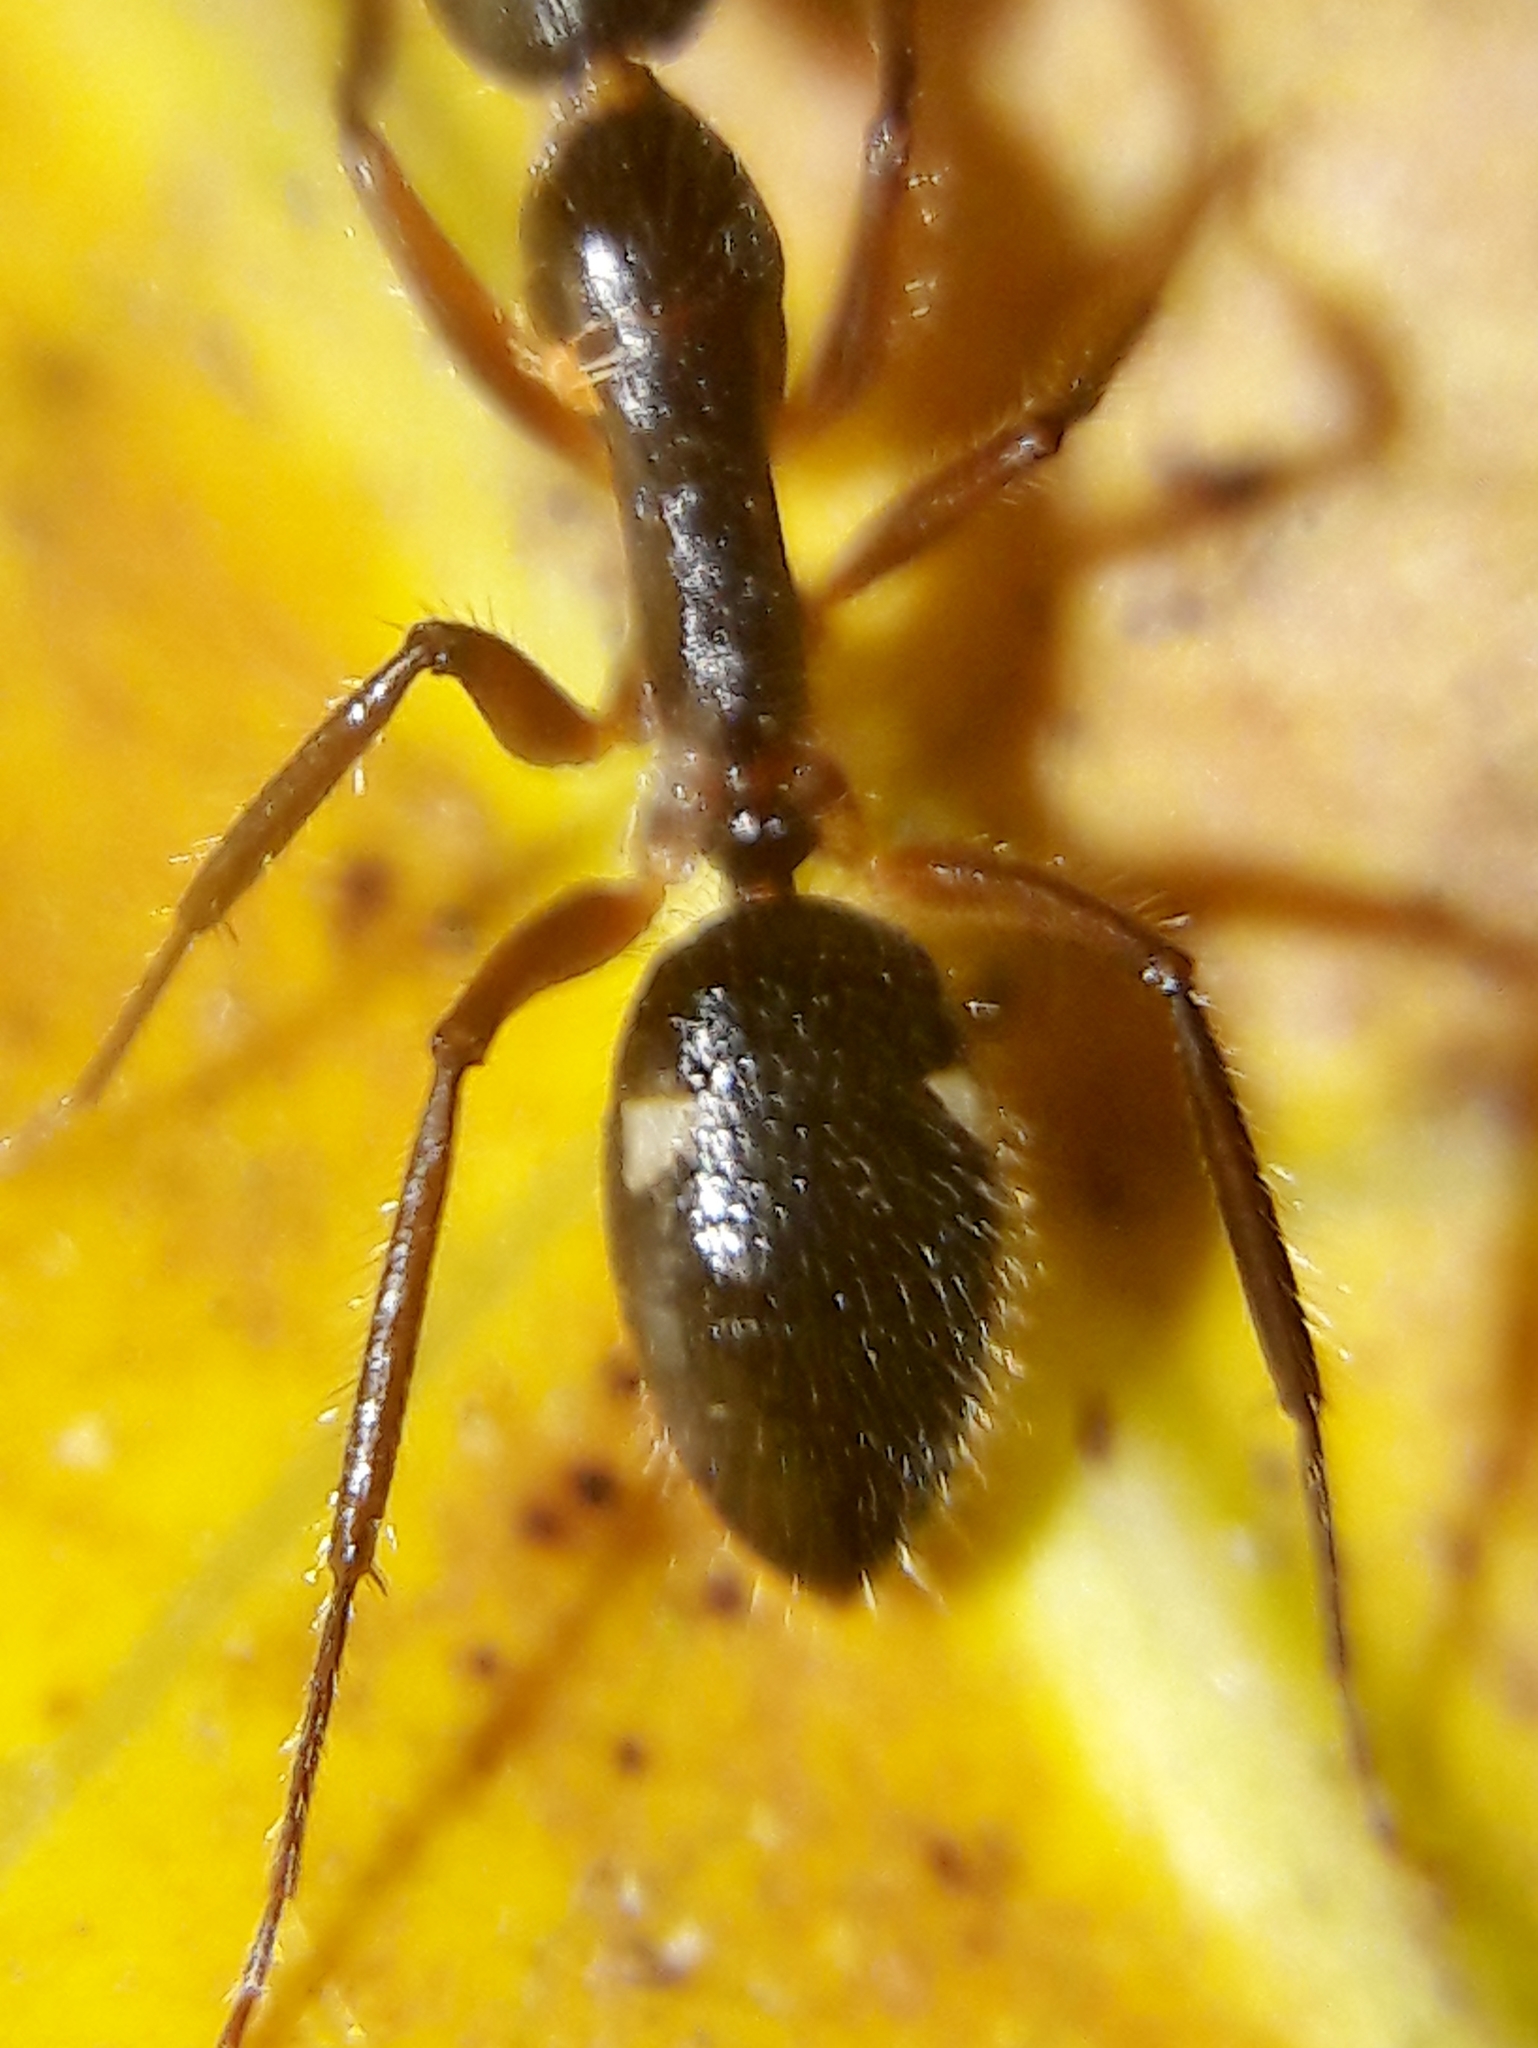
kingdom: Animalia
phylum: Arthropoda
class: Insecta
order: Hymenoptera
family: Formicidae
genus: Camponotus
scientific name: Camponotus sexguttatus
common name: Neotropical carpenter ant
